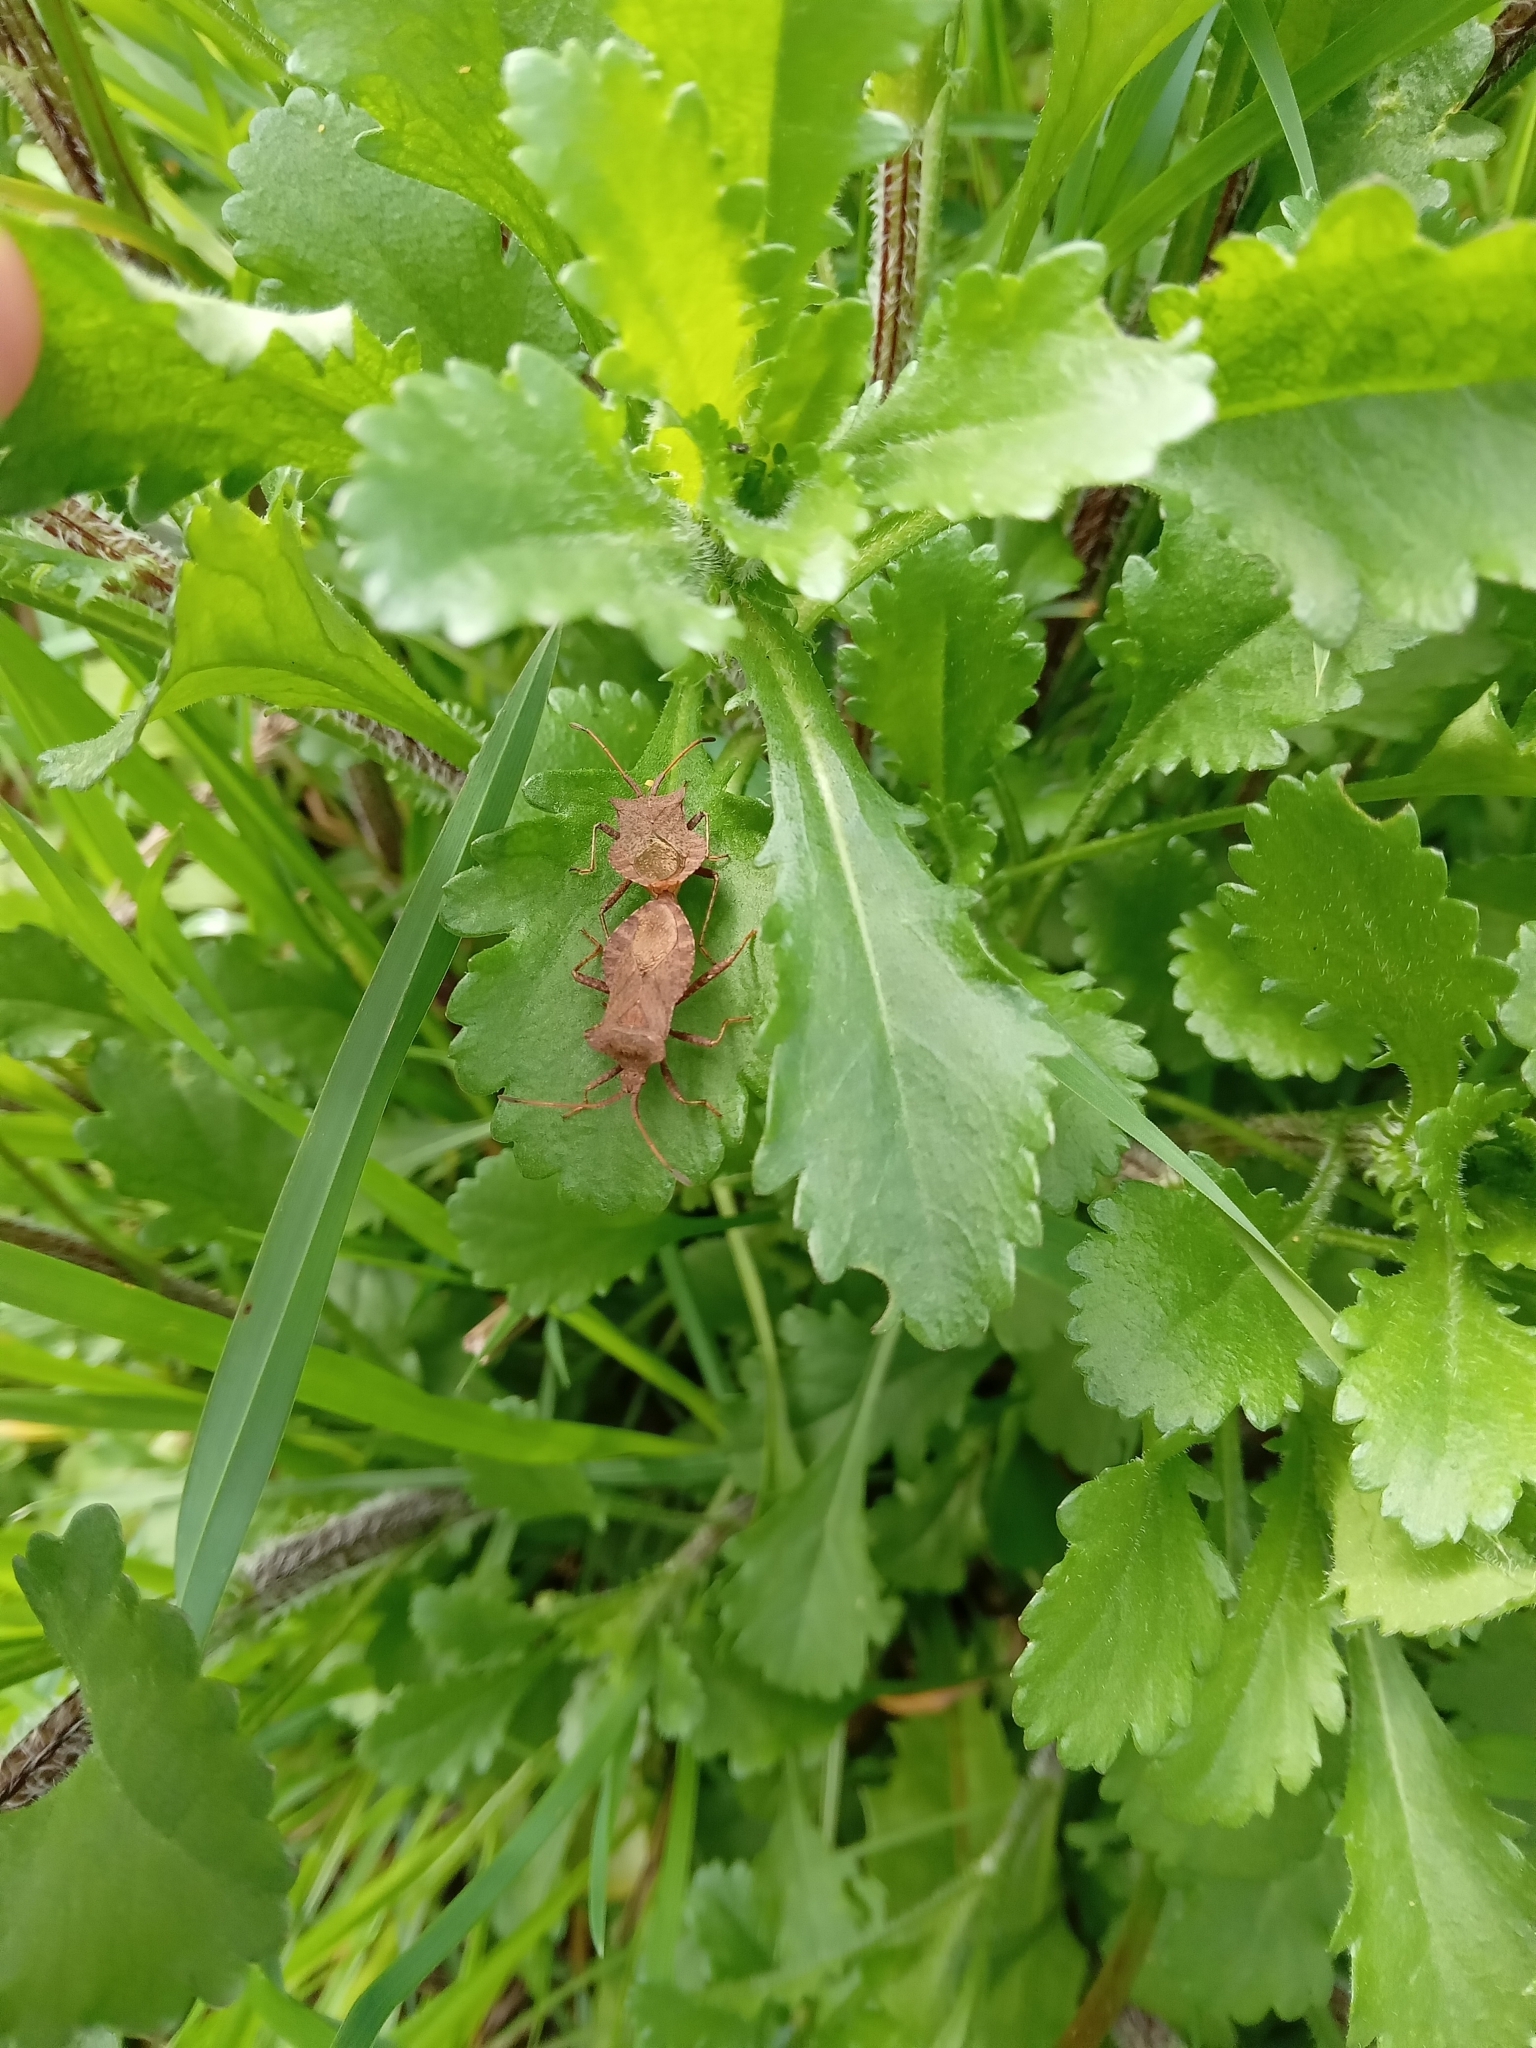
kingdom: Animalia
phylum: Arthropoda
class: Insecta
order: Hemiptera
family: Coreidae
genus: Coreus
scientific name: Coreus marginatus
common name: Dock bug
